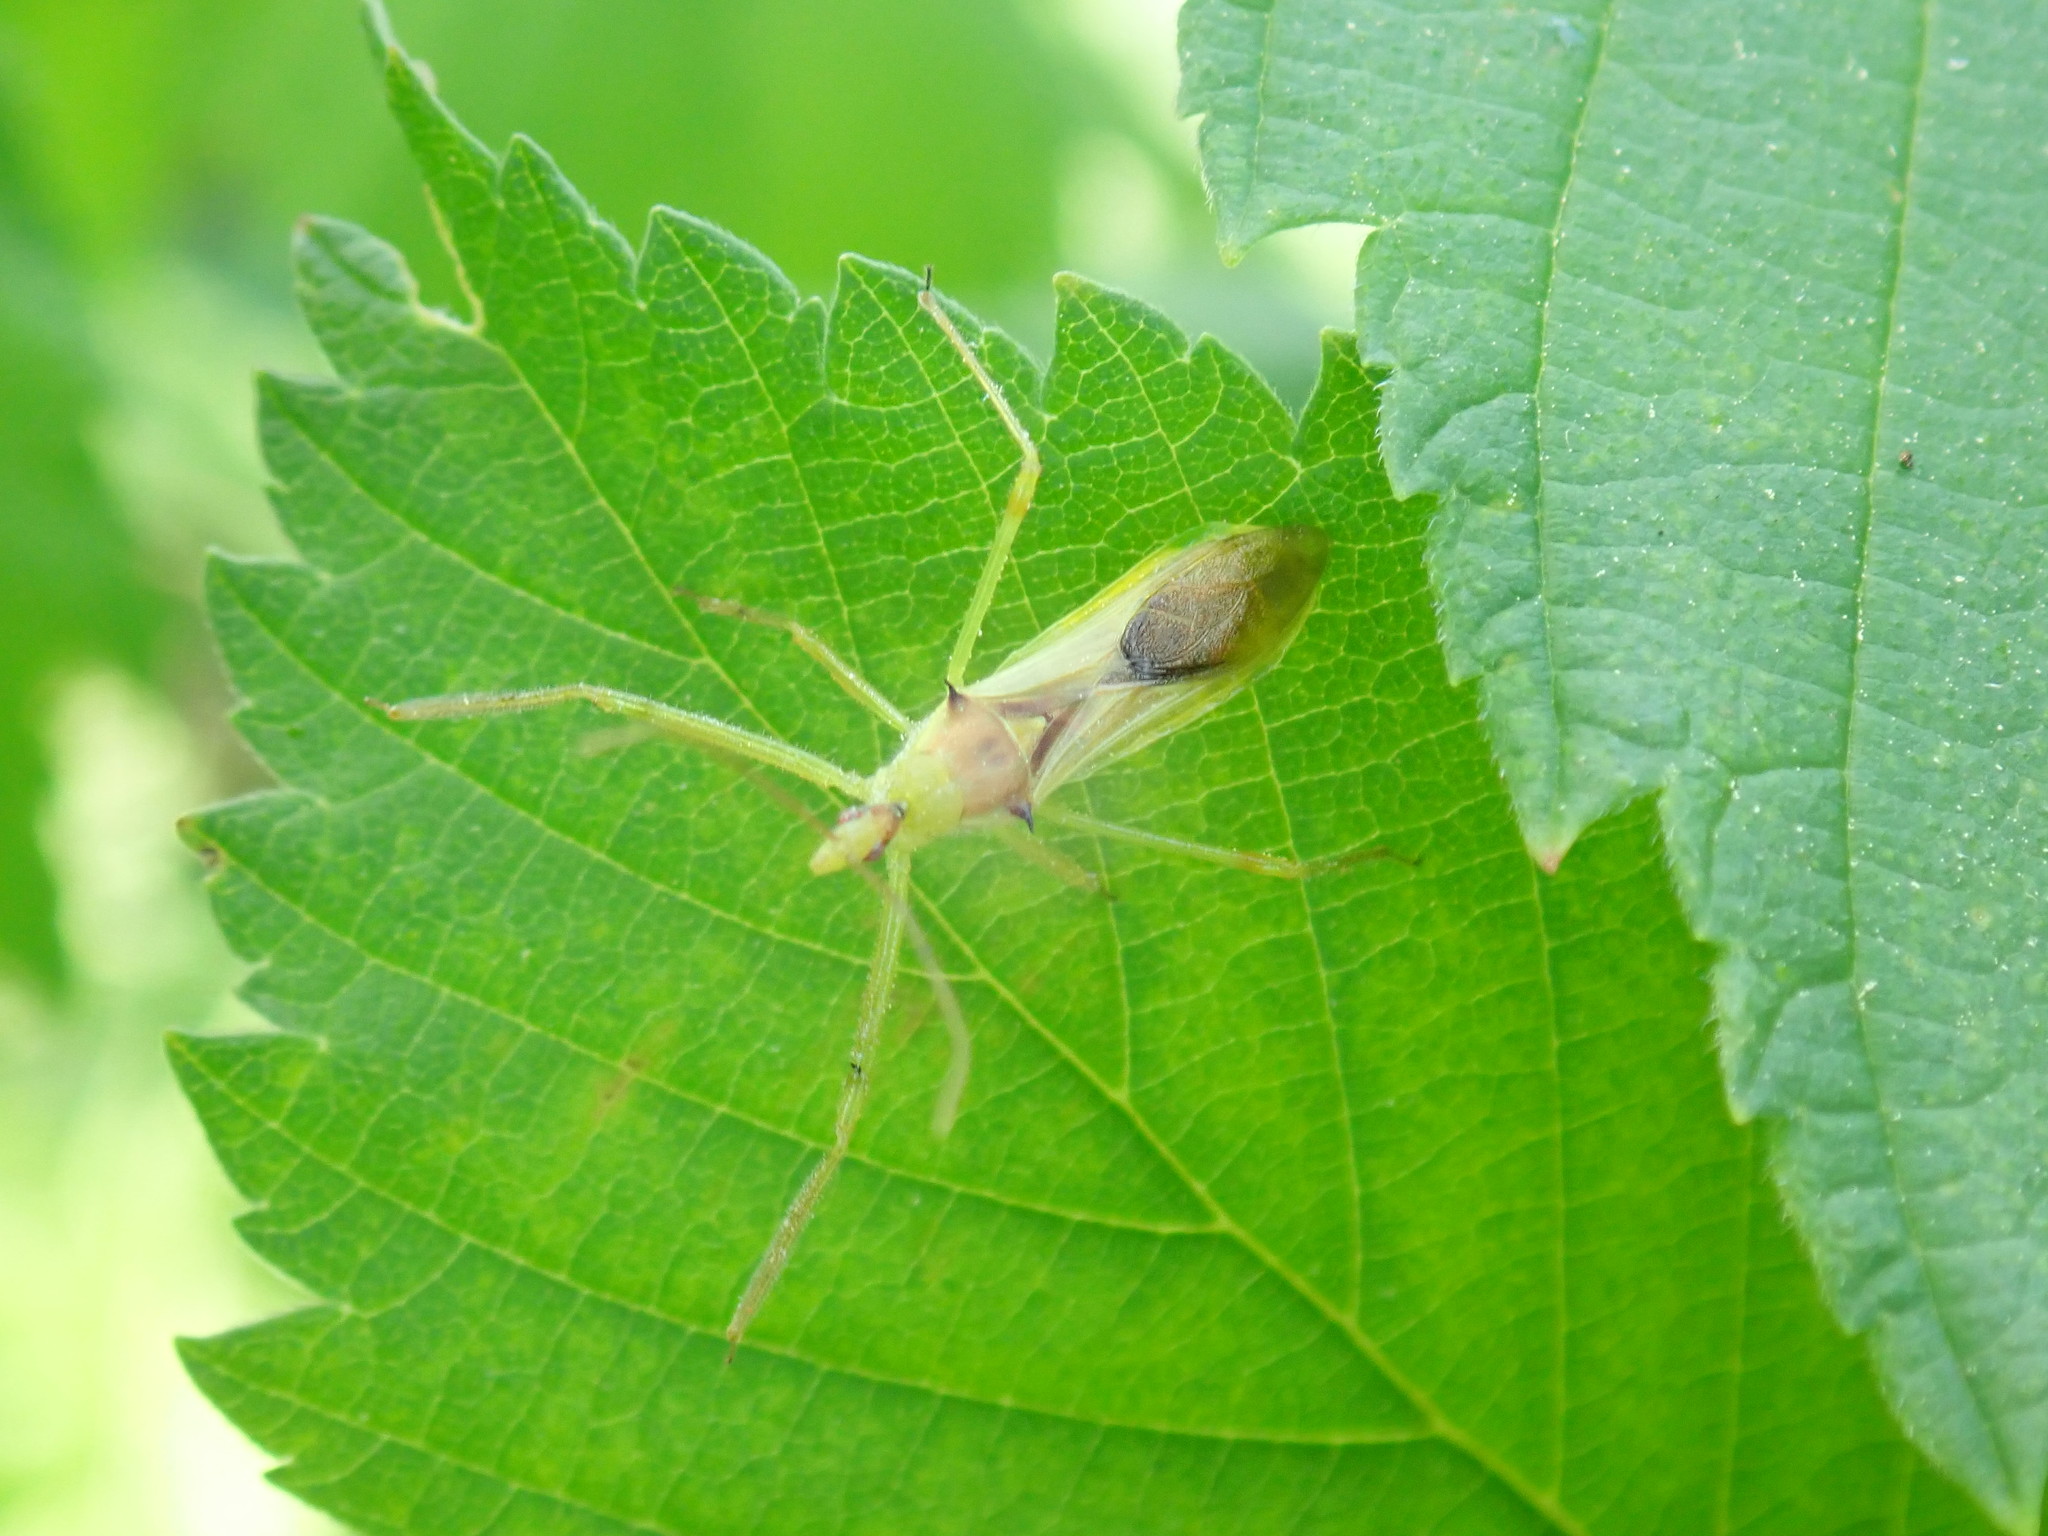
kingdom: Animalia
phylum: Arthropoda
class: Insecta
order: Hemiptera
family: Reduviidae
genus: Zelus
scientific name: Zelus luridus
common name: Pale green assassin bug
